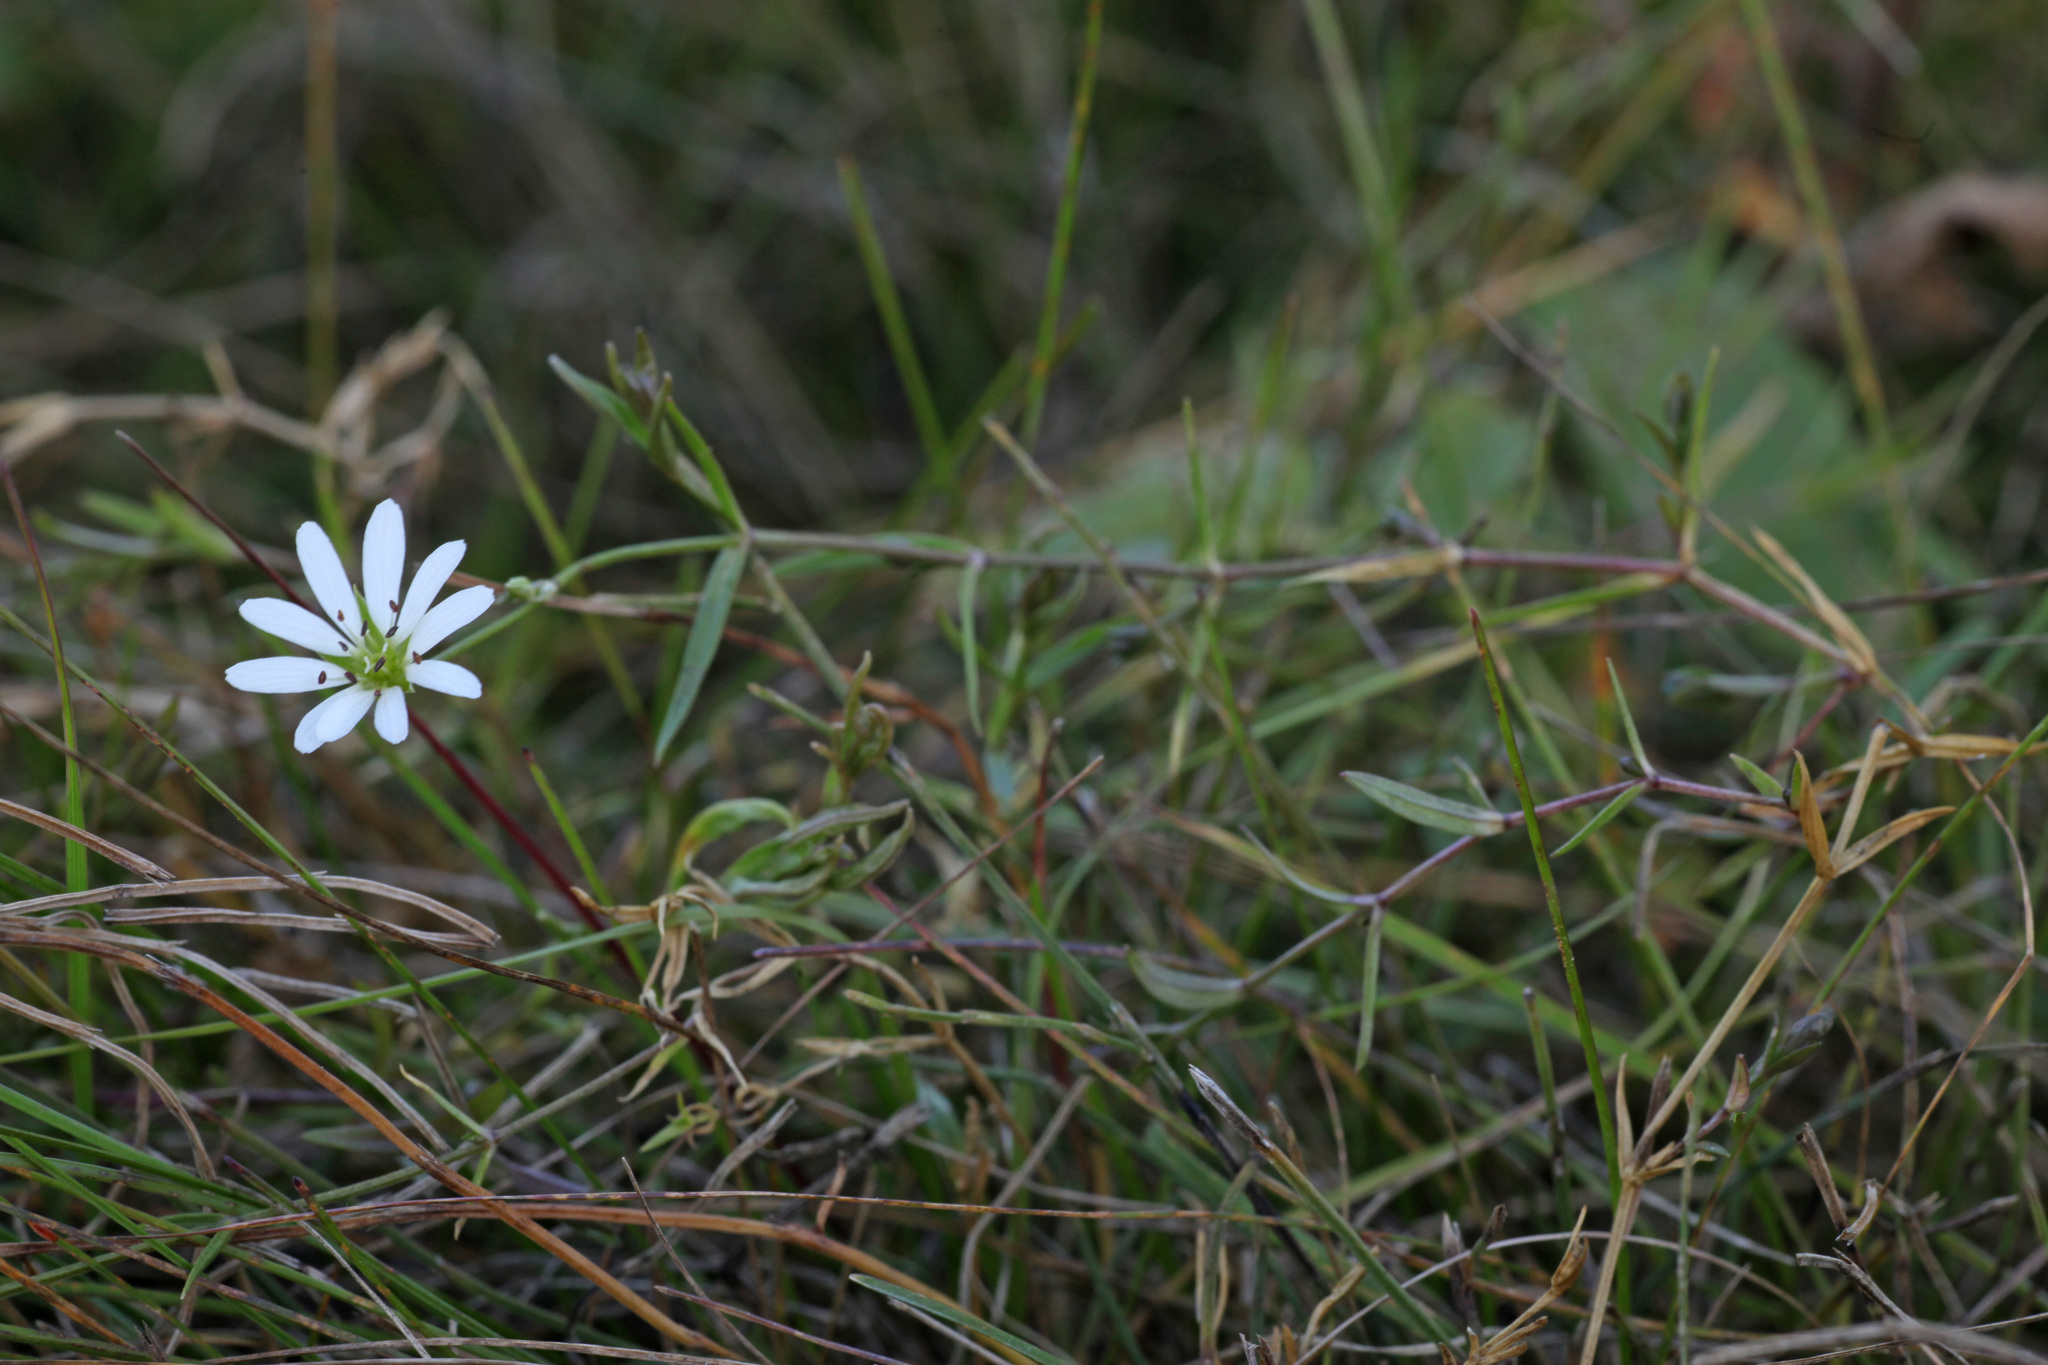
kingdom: Plantae
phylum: Tracheophyta
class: Magnoliopsida
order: Caryophyllales
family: Caryophyllaceae
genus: Stellaria
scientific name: Stellaria palustris
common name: Marsh stitchwort
